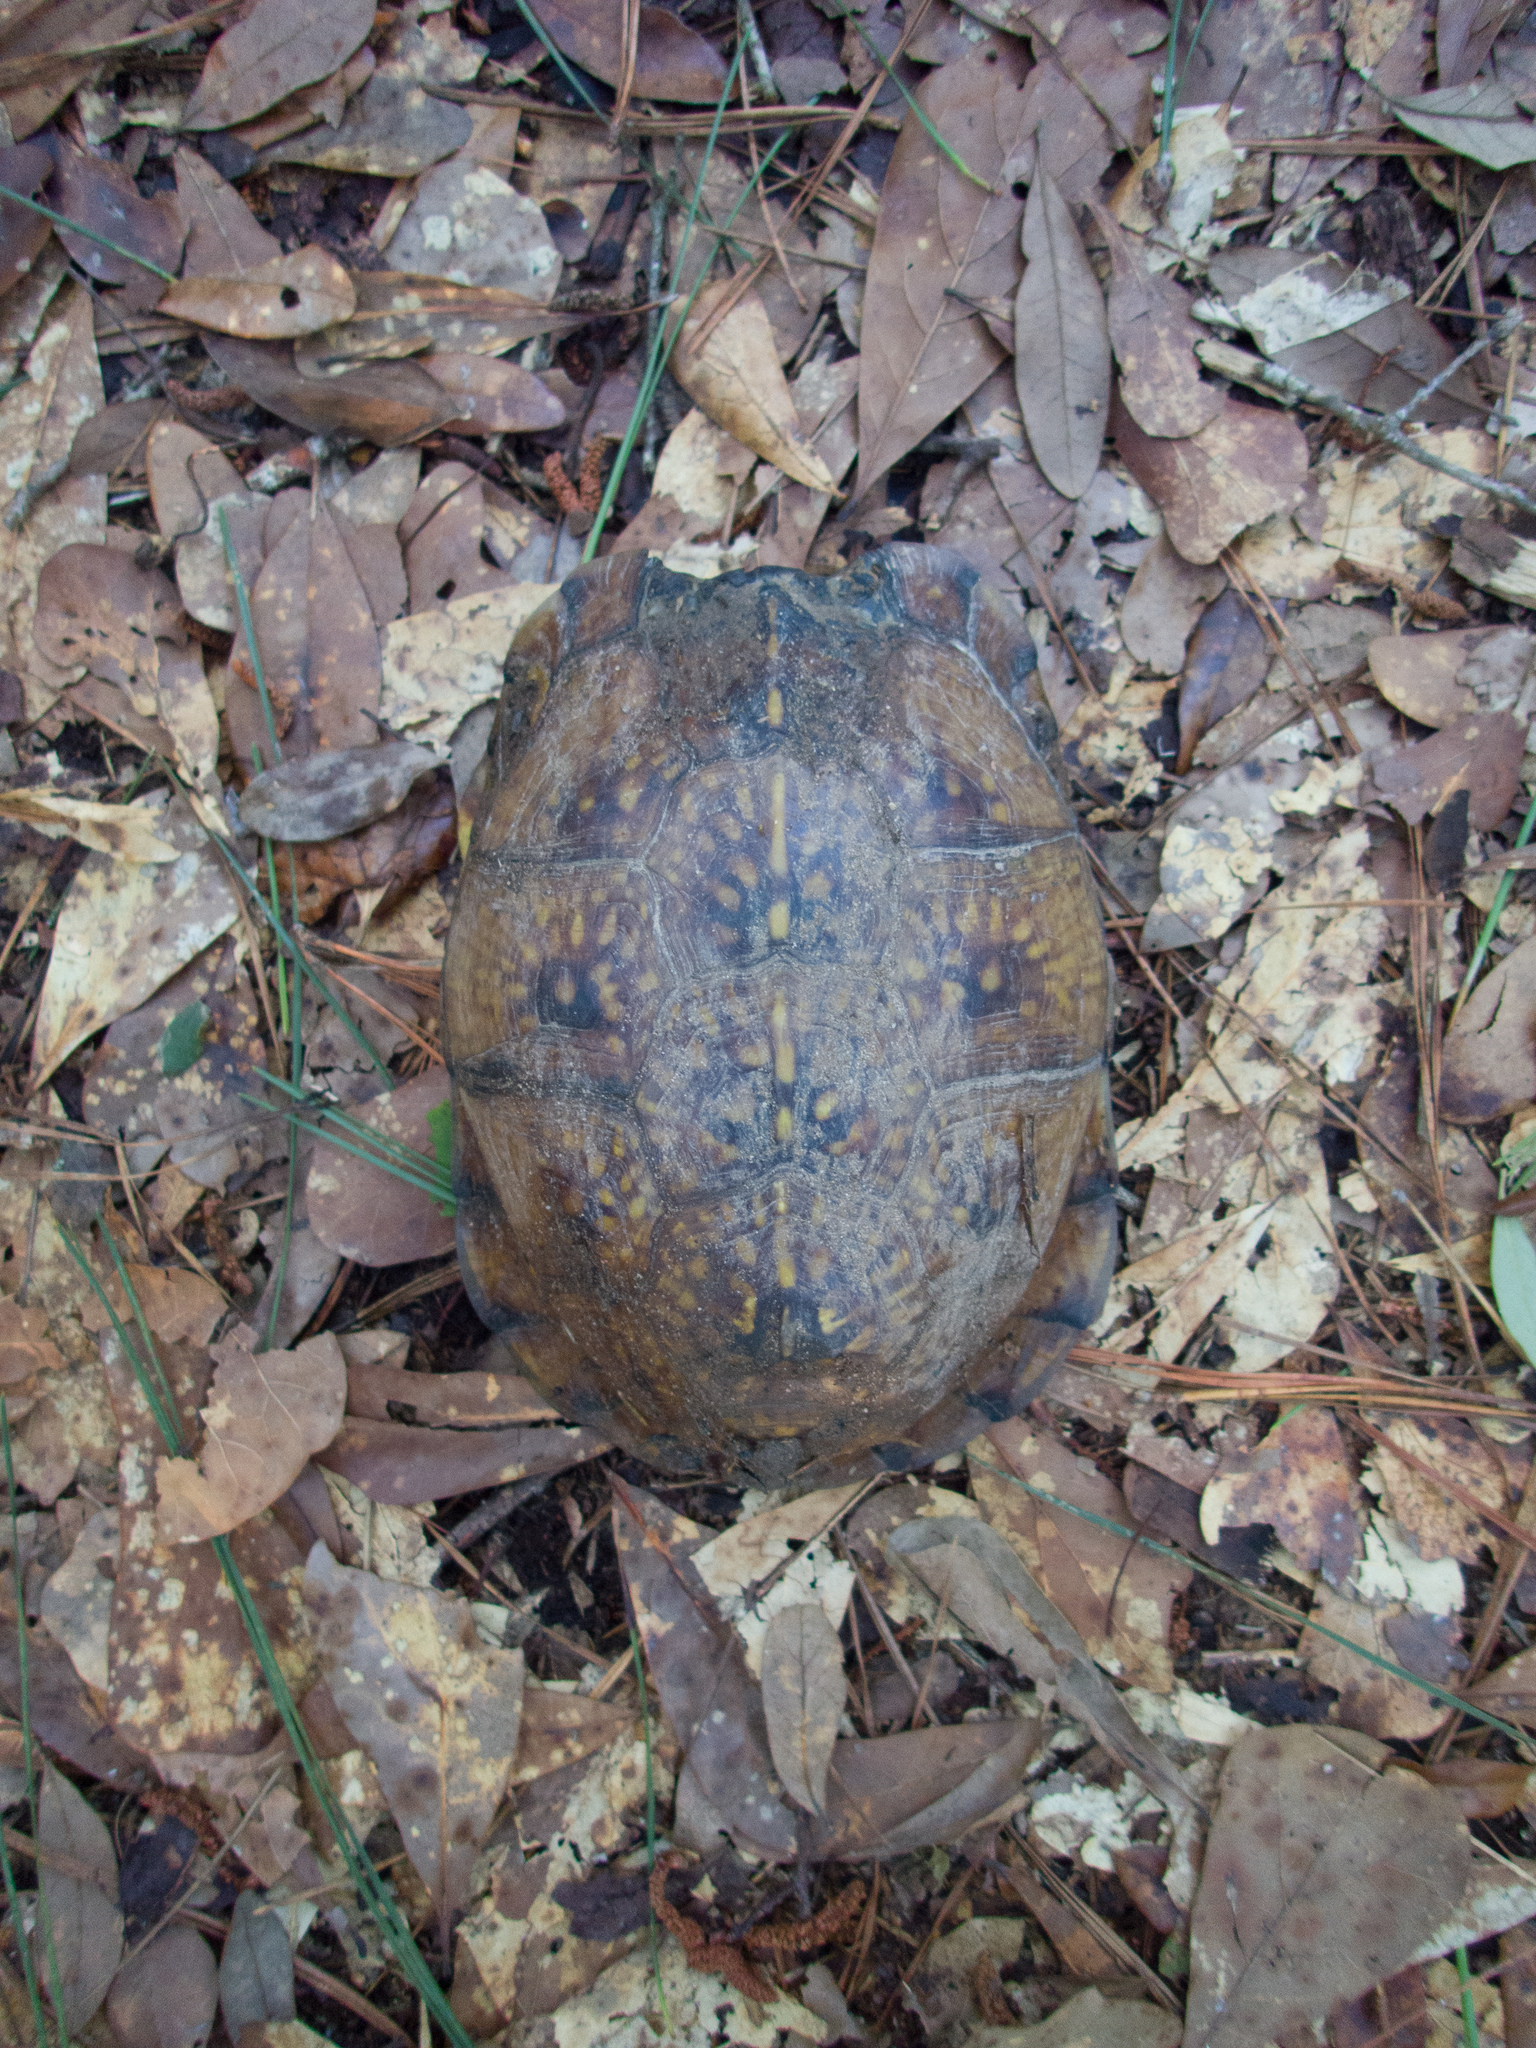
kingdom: Animalia
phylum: Chordata
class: Testudines
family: Emydidae
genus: Terrapene
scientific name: Terrapene carolina
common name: Common box turtle
